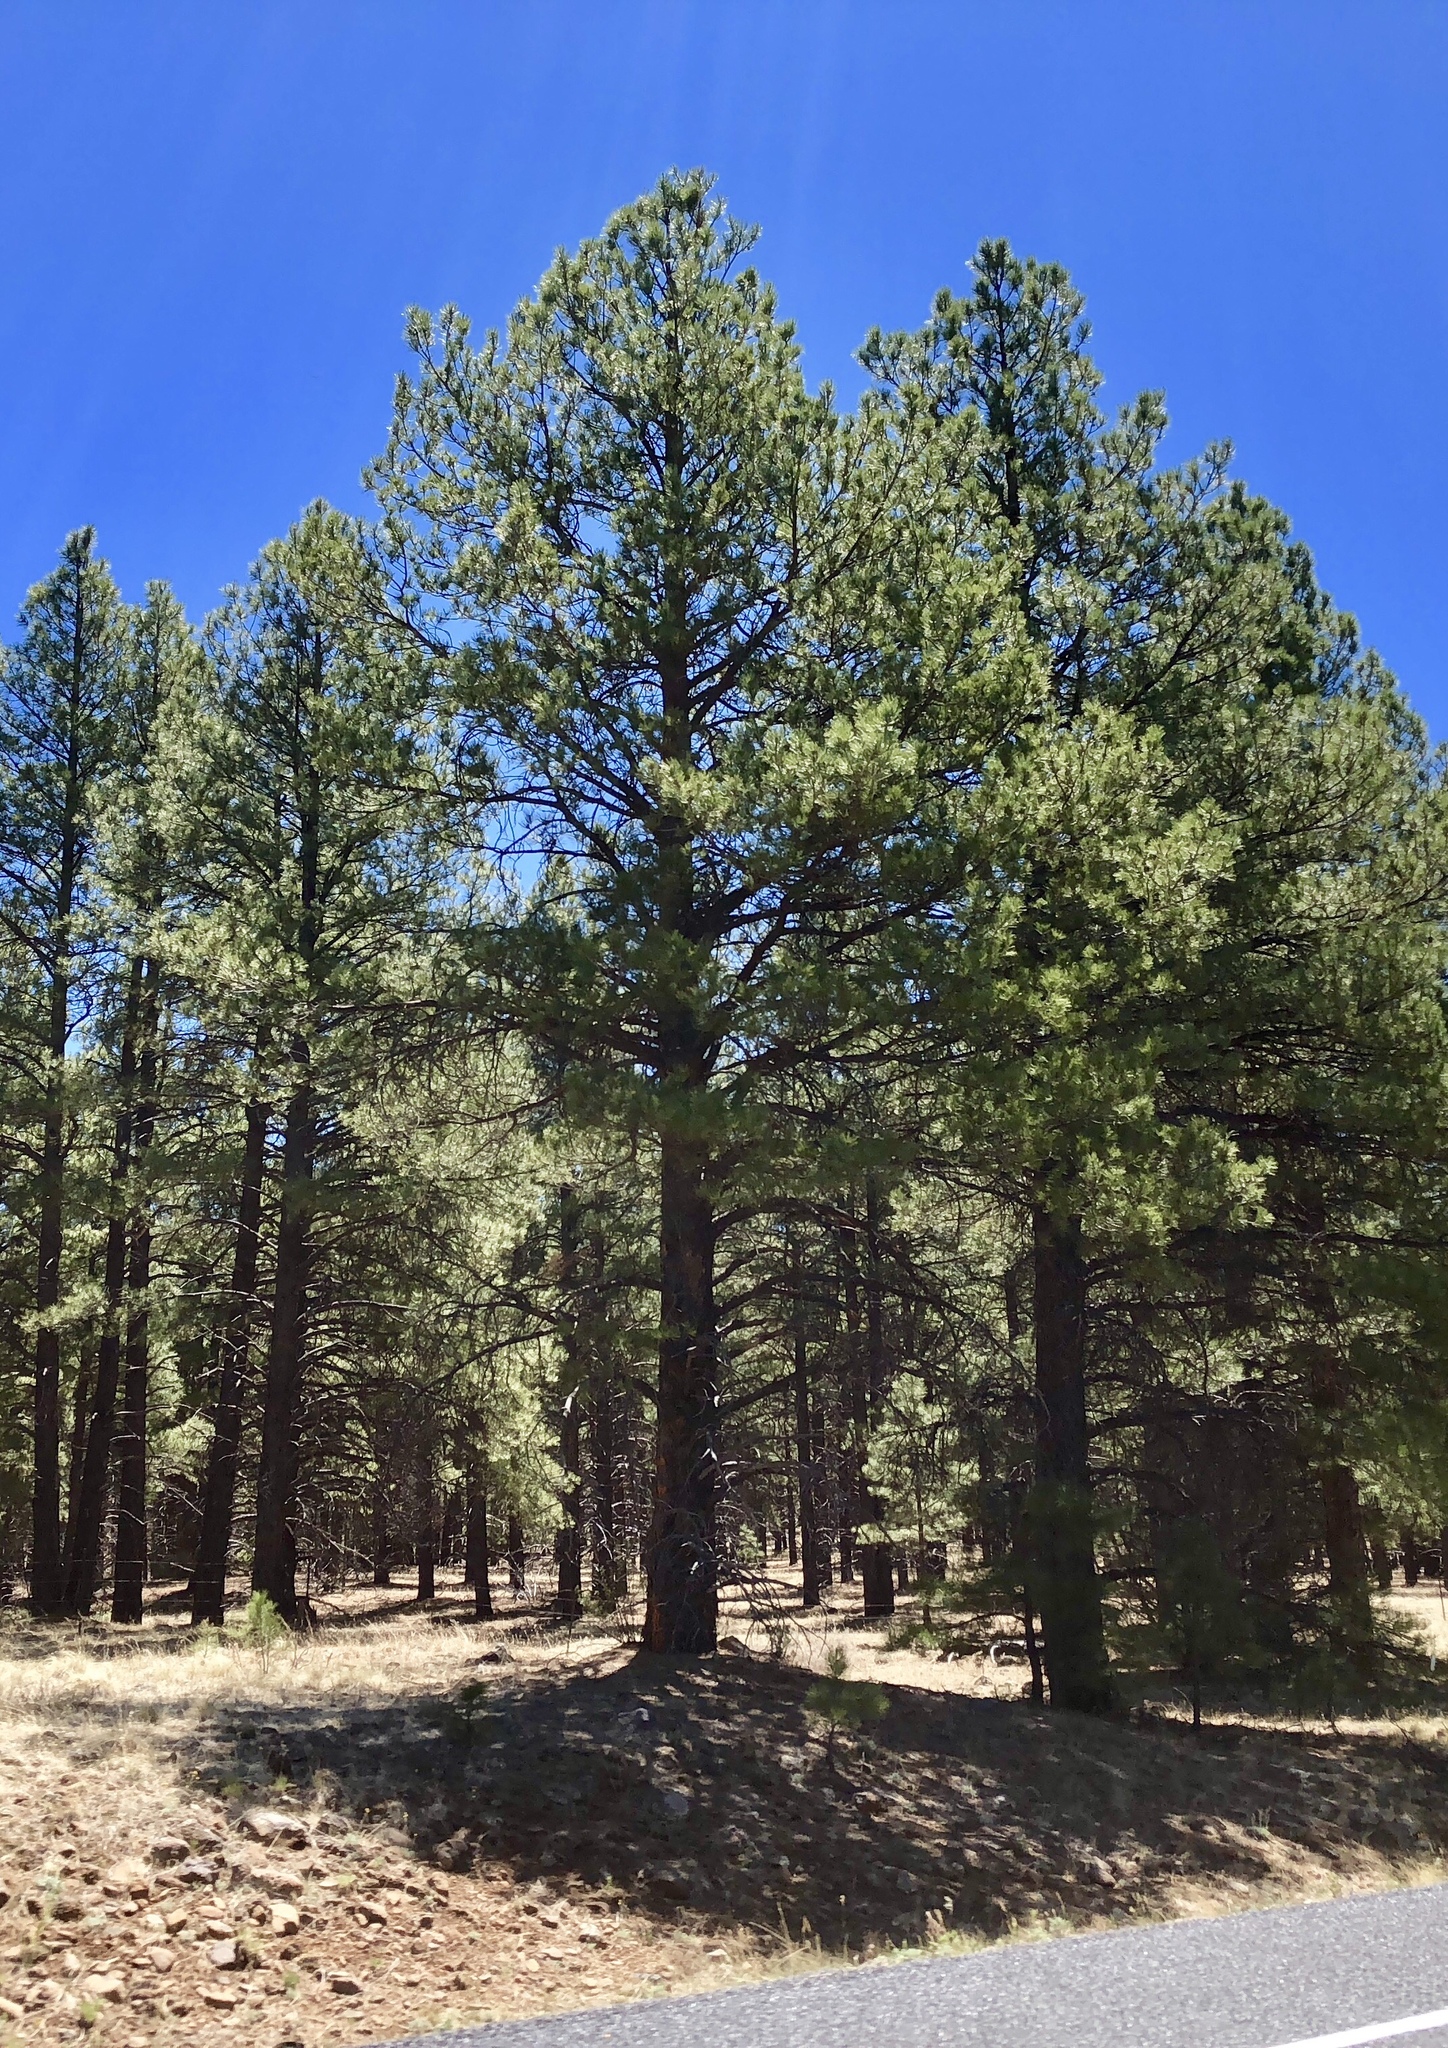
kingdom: Plantae
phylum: Tracheophyta
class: Pinopsida
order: Pinales
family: Pinaceae
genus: Pinus
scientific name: Pinus ponderosa
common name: Western yellow-pine
